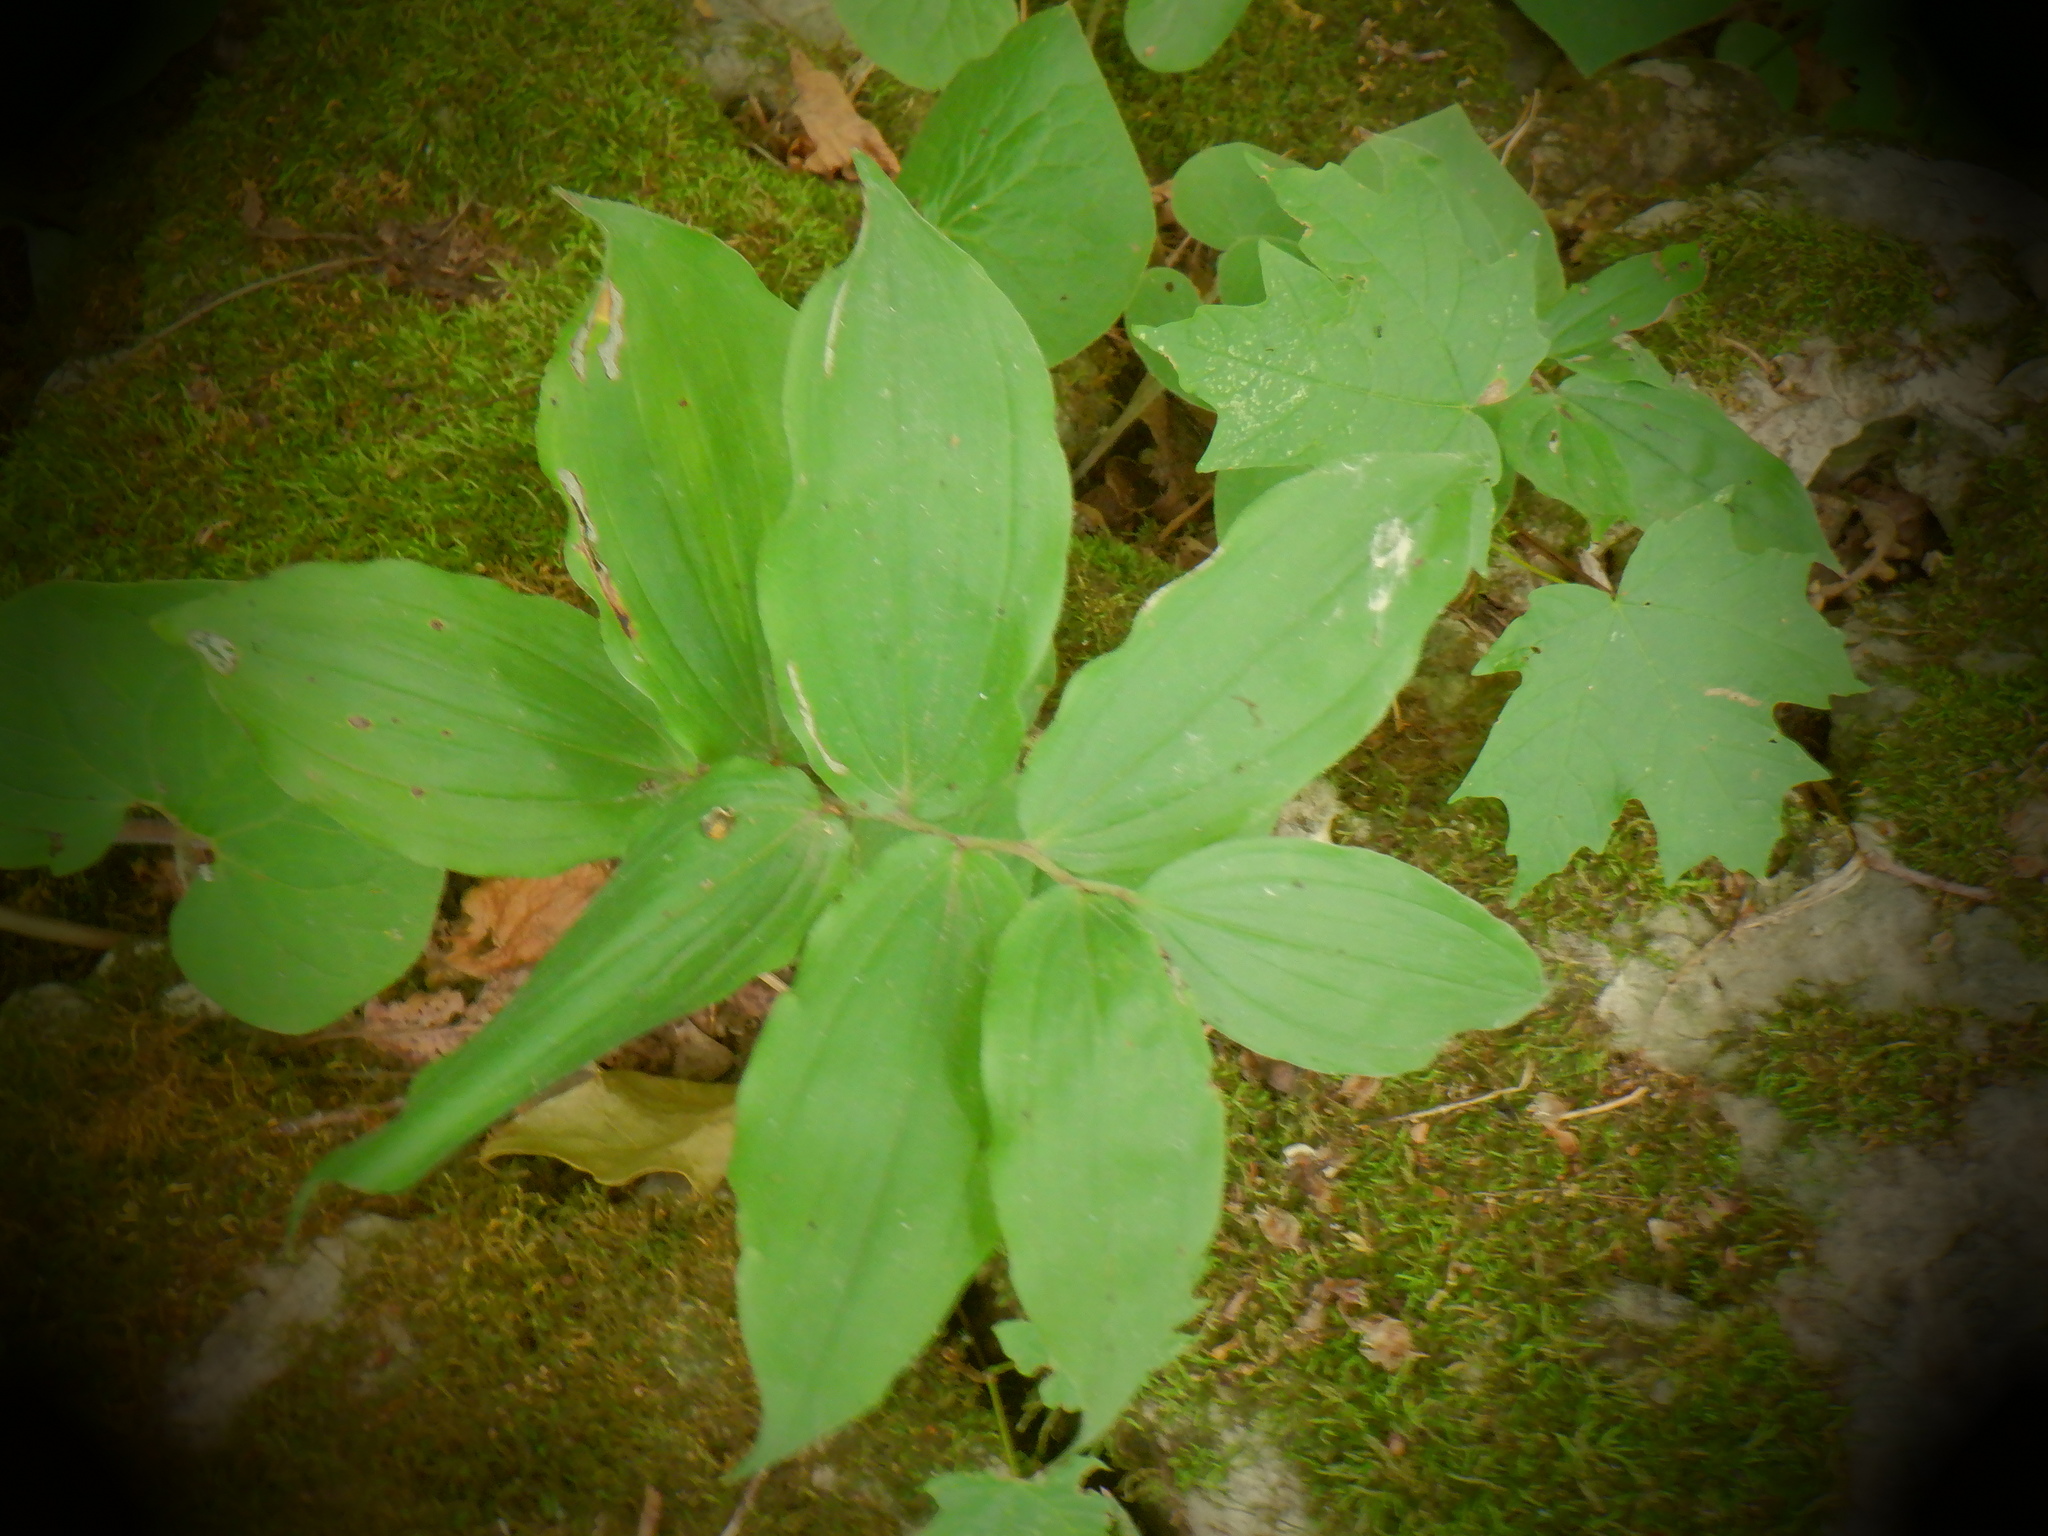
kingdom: Plantae
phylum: Tracheophyta
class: Liliopsida
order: Asparagales
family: Asparagaceae
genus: Maianthemum
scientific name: Maianthemum racemosum
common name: False spikenard
